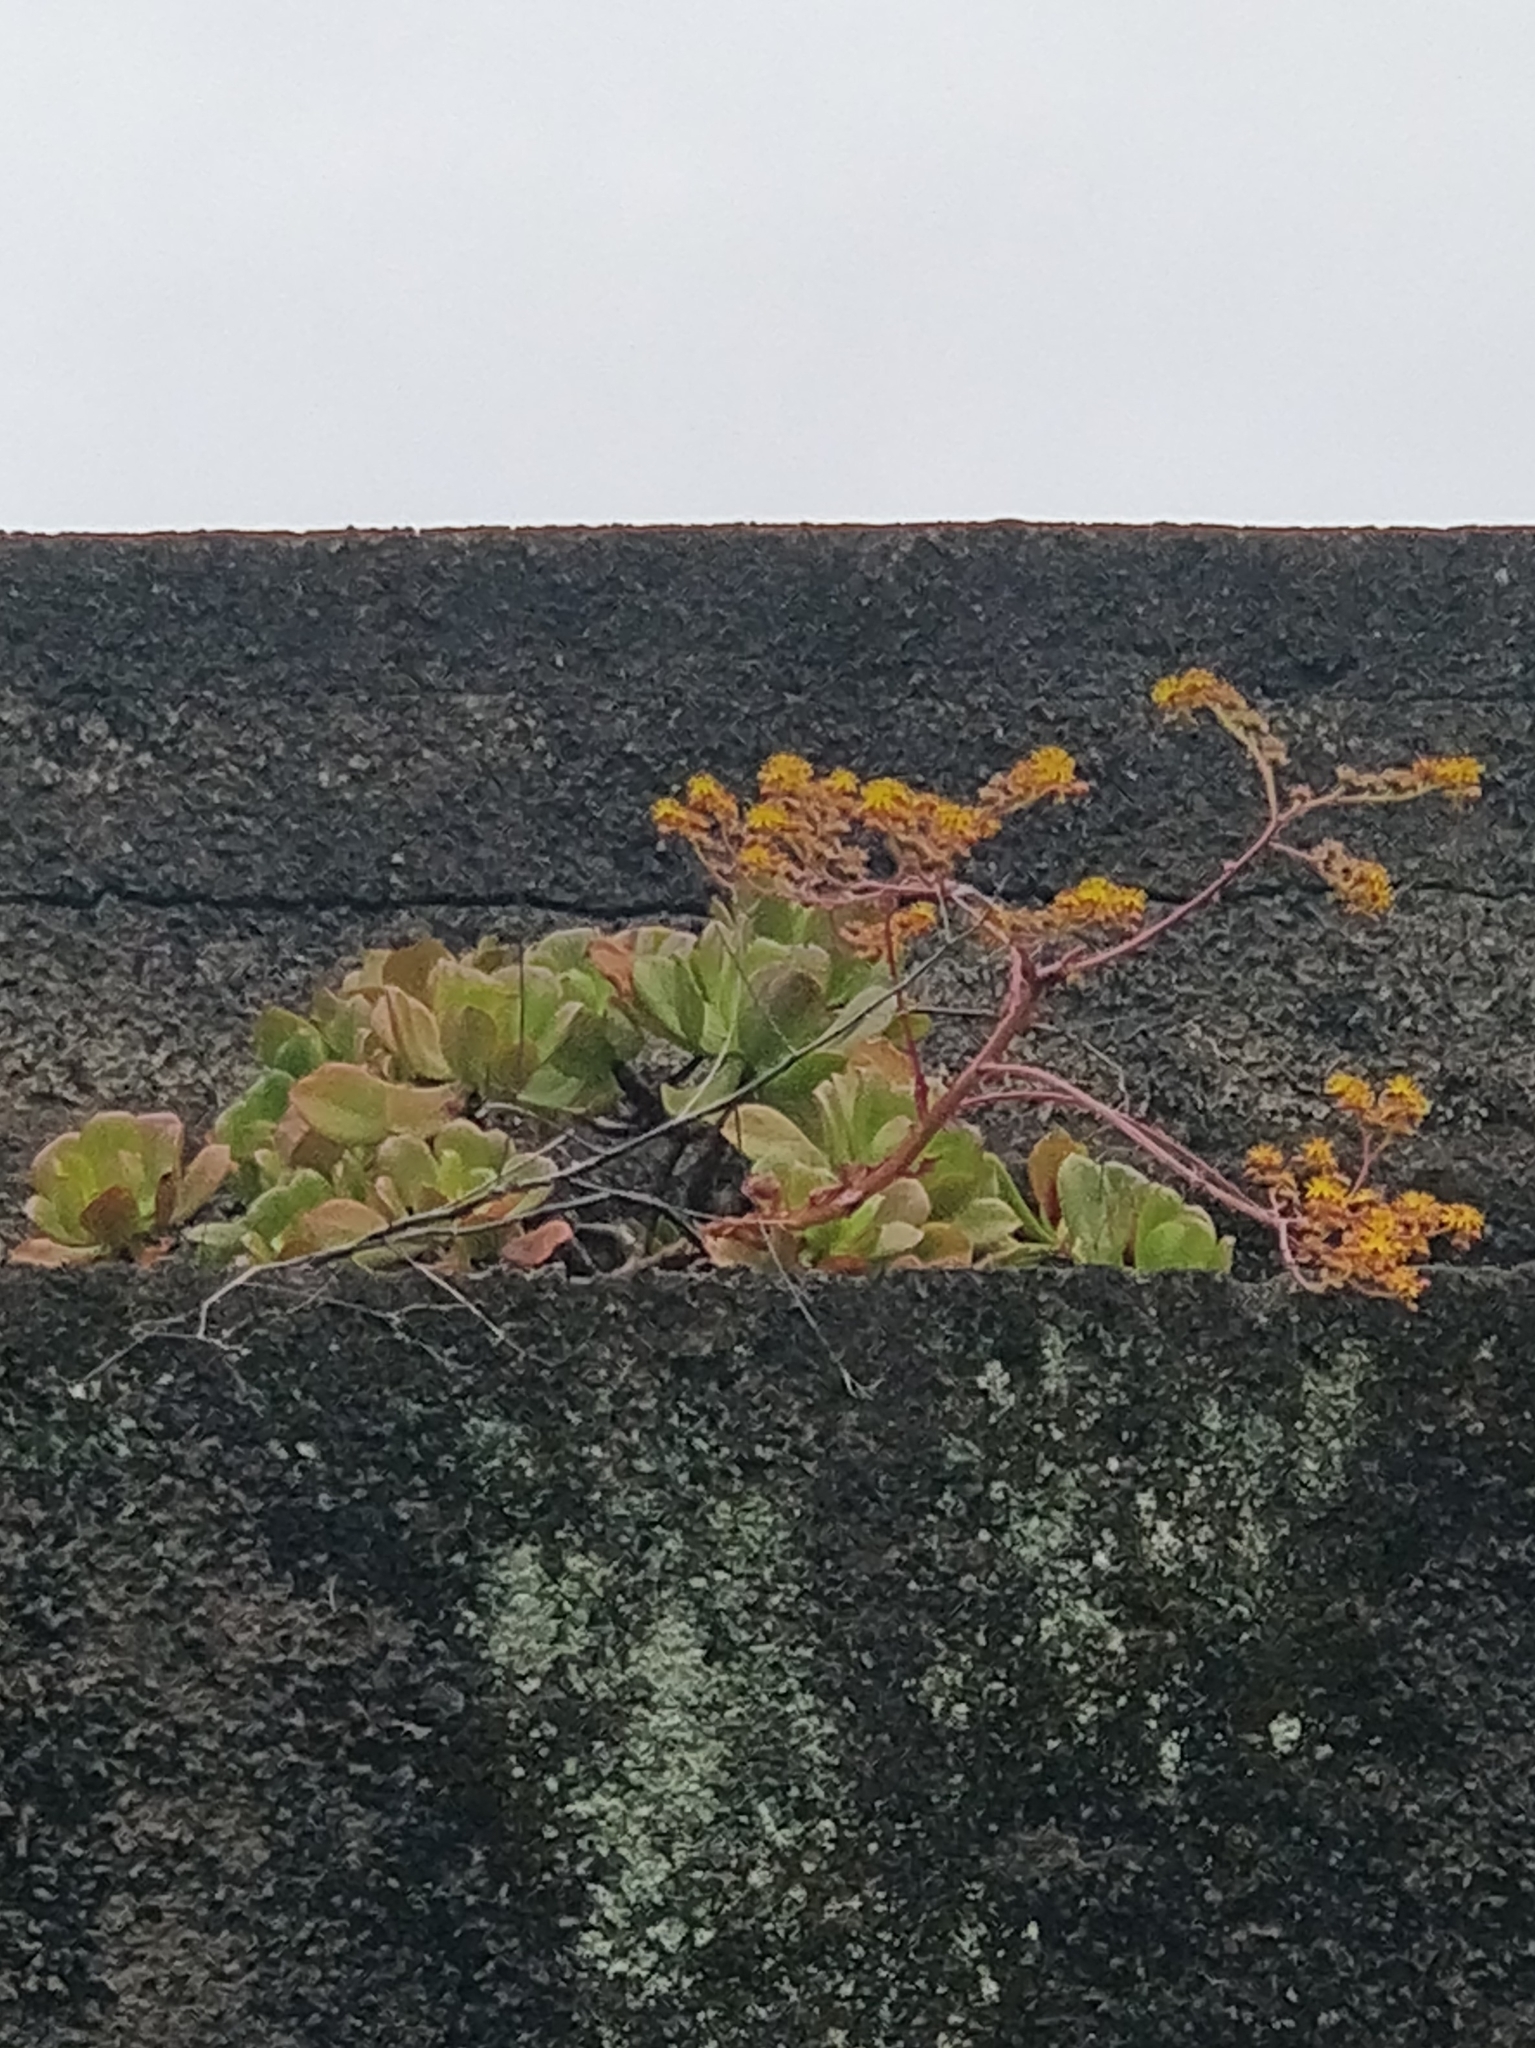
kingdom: Plantae
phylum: Tracheophyta
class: Magnoliopsida
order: Saxifragales
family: Crassulaceae
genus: Aeonium
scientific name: Aeonium glutinosum
